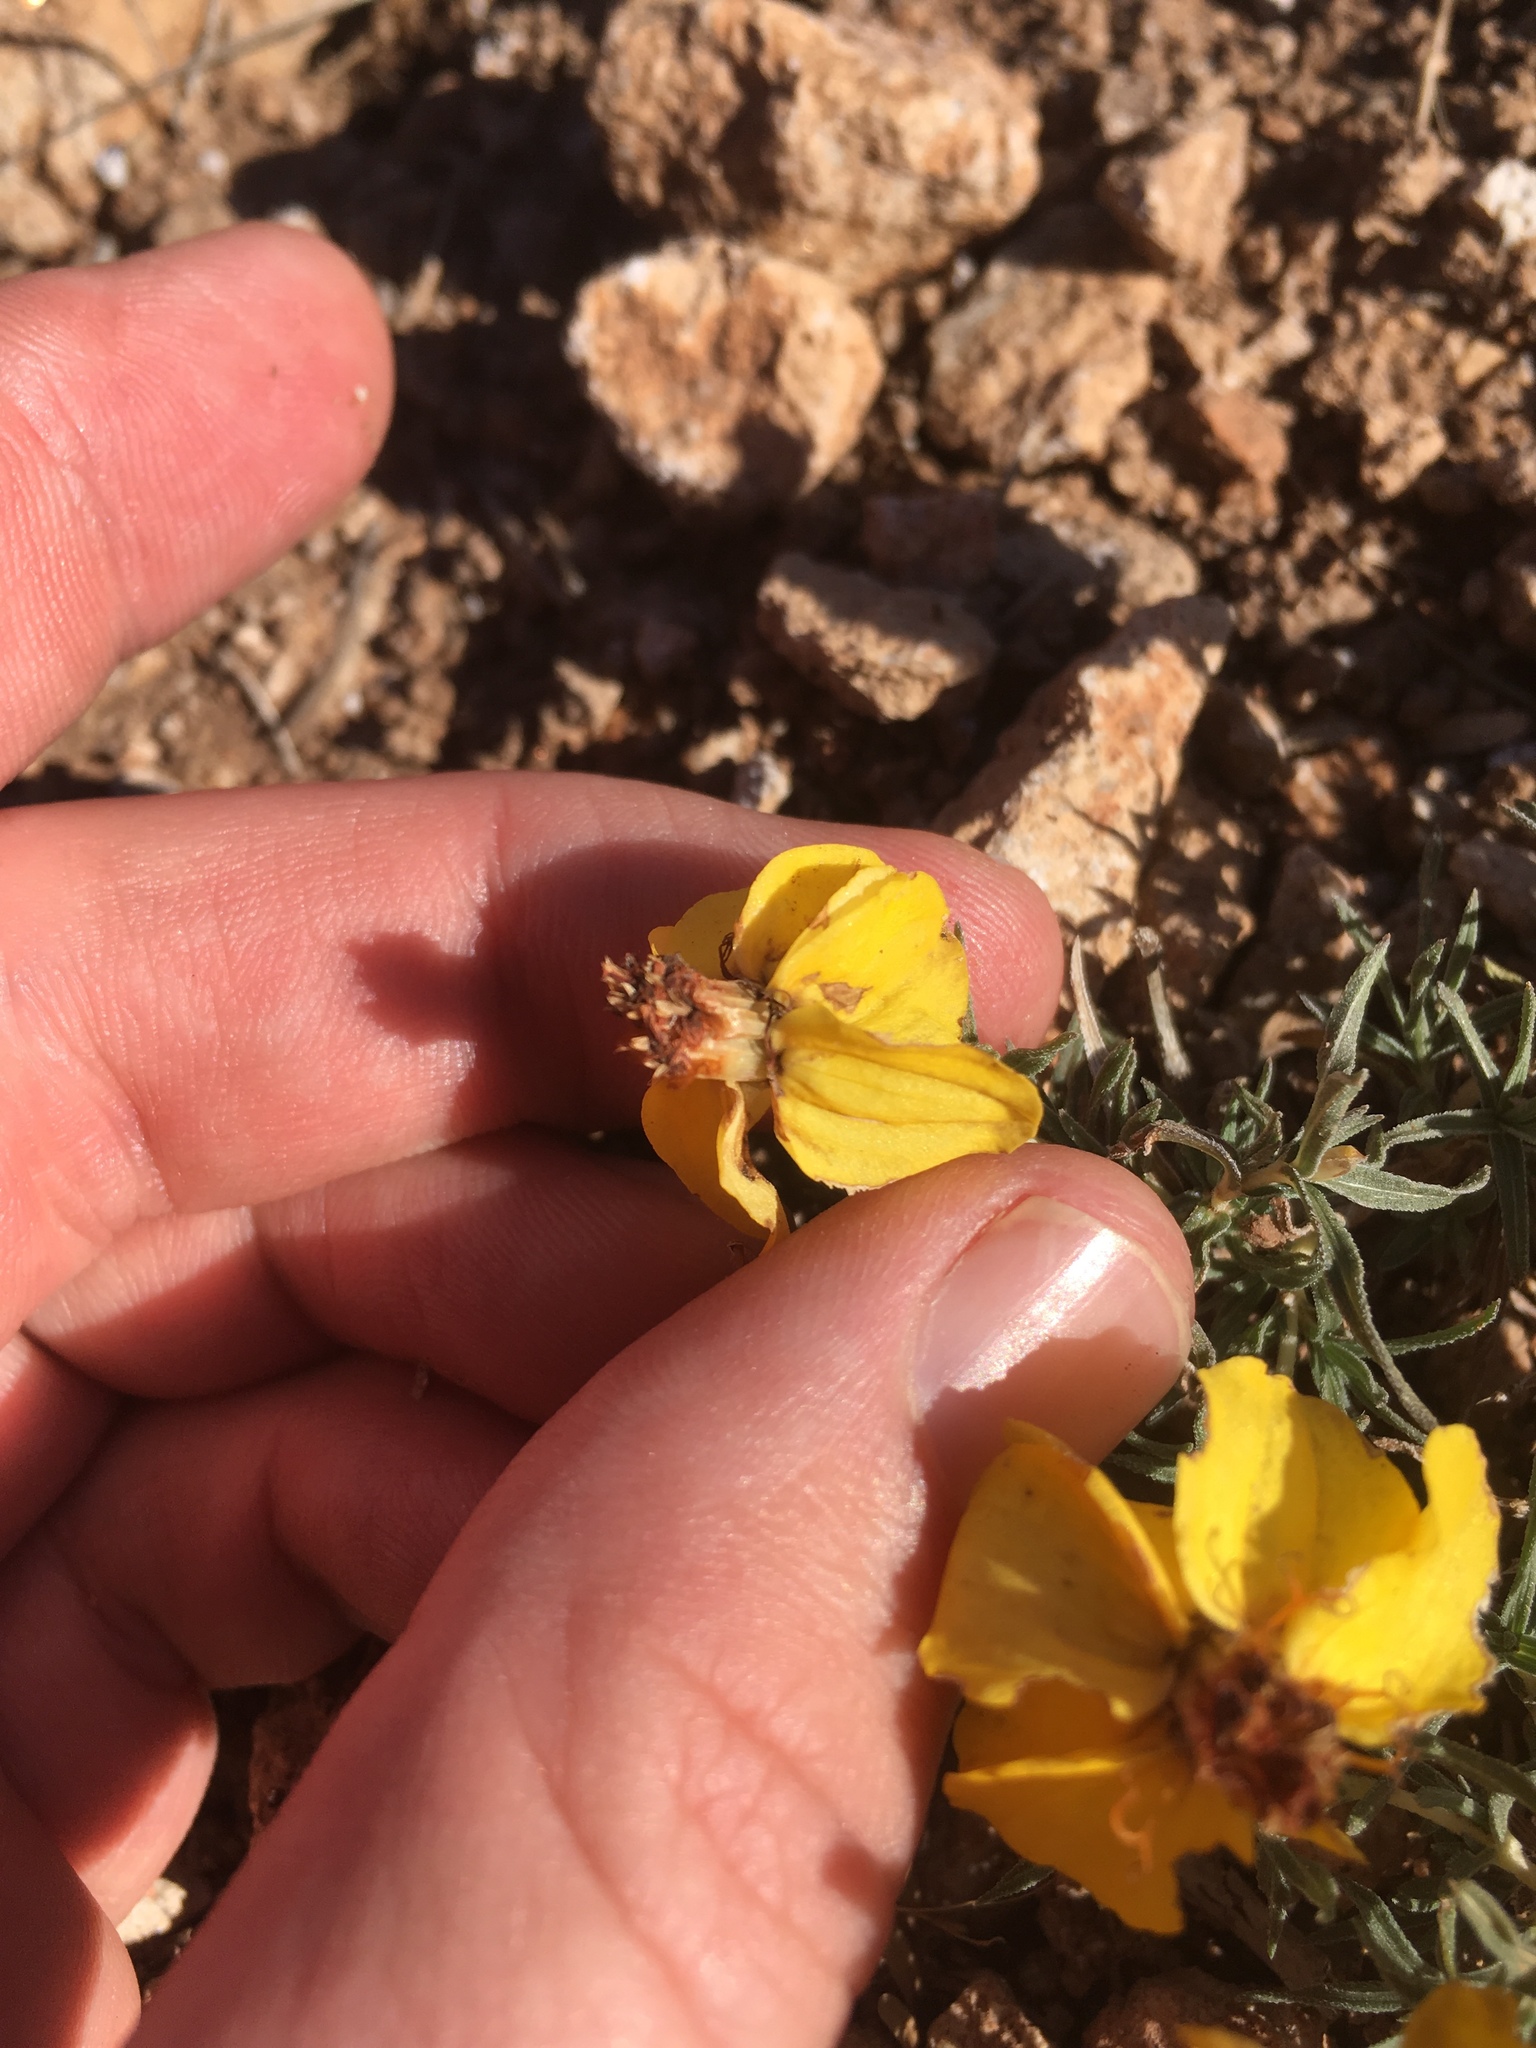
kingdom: Plantae
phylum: Tracheophyta
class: Magnoliopsida
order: Asterales
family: Asteraceae
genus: Zinnia
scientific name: Zinnia grandiflora
